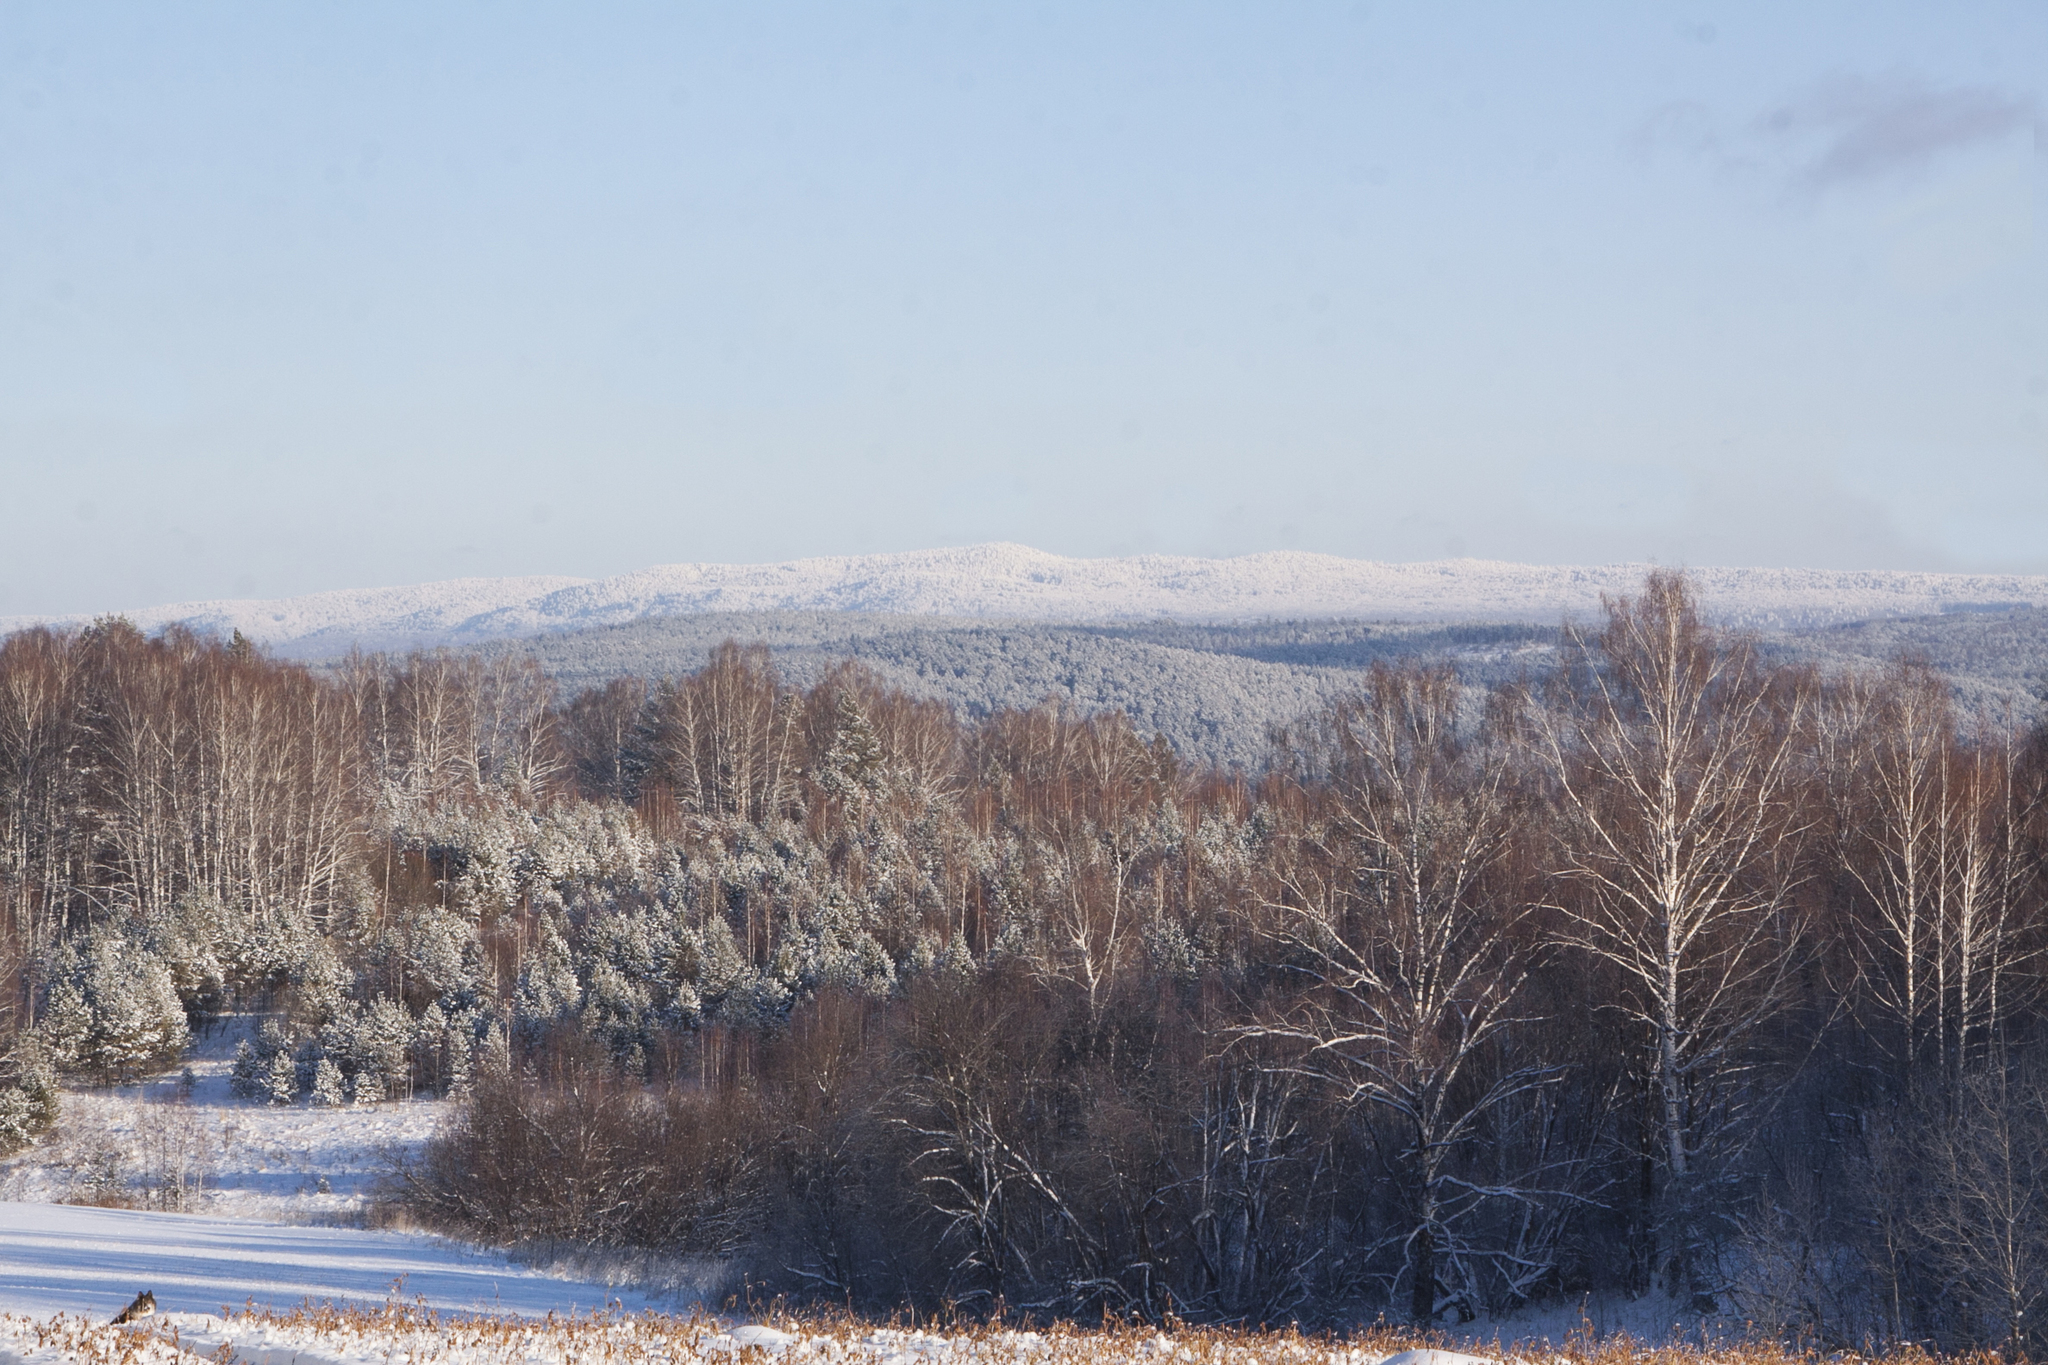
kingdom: Plantae
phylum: Tracheophyta
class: Magnoliopsida
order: Fagales
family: Betulaceae
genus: Betula
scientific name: Betula pendula
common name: Silver birch
